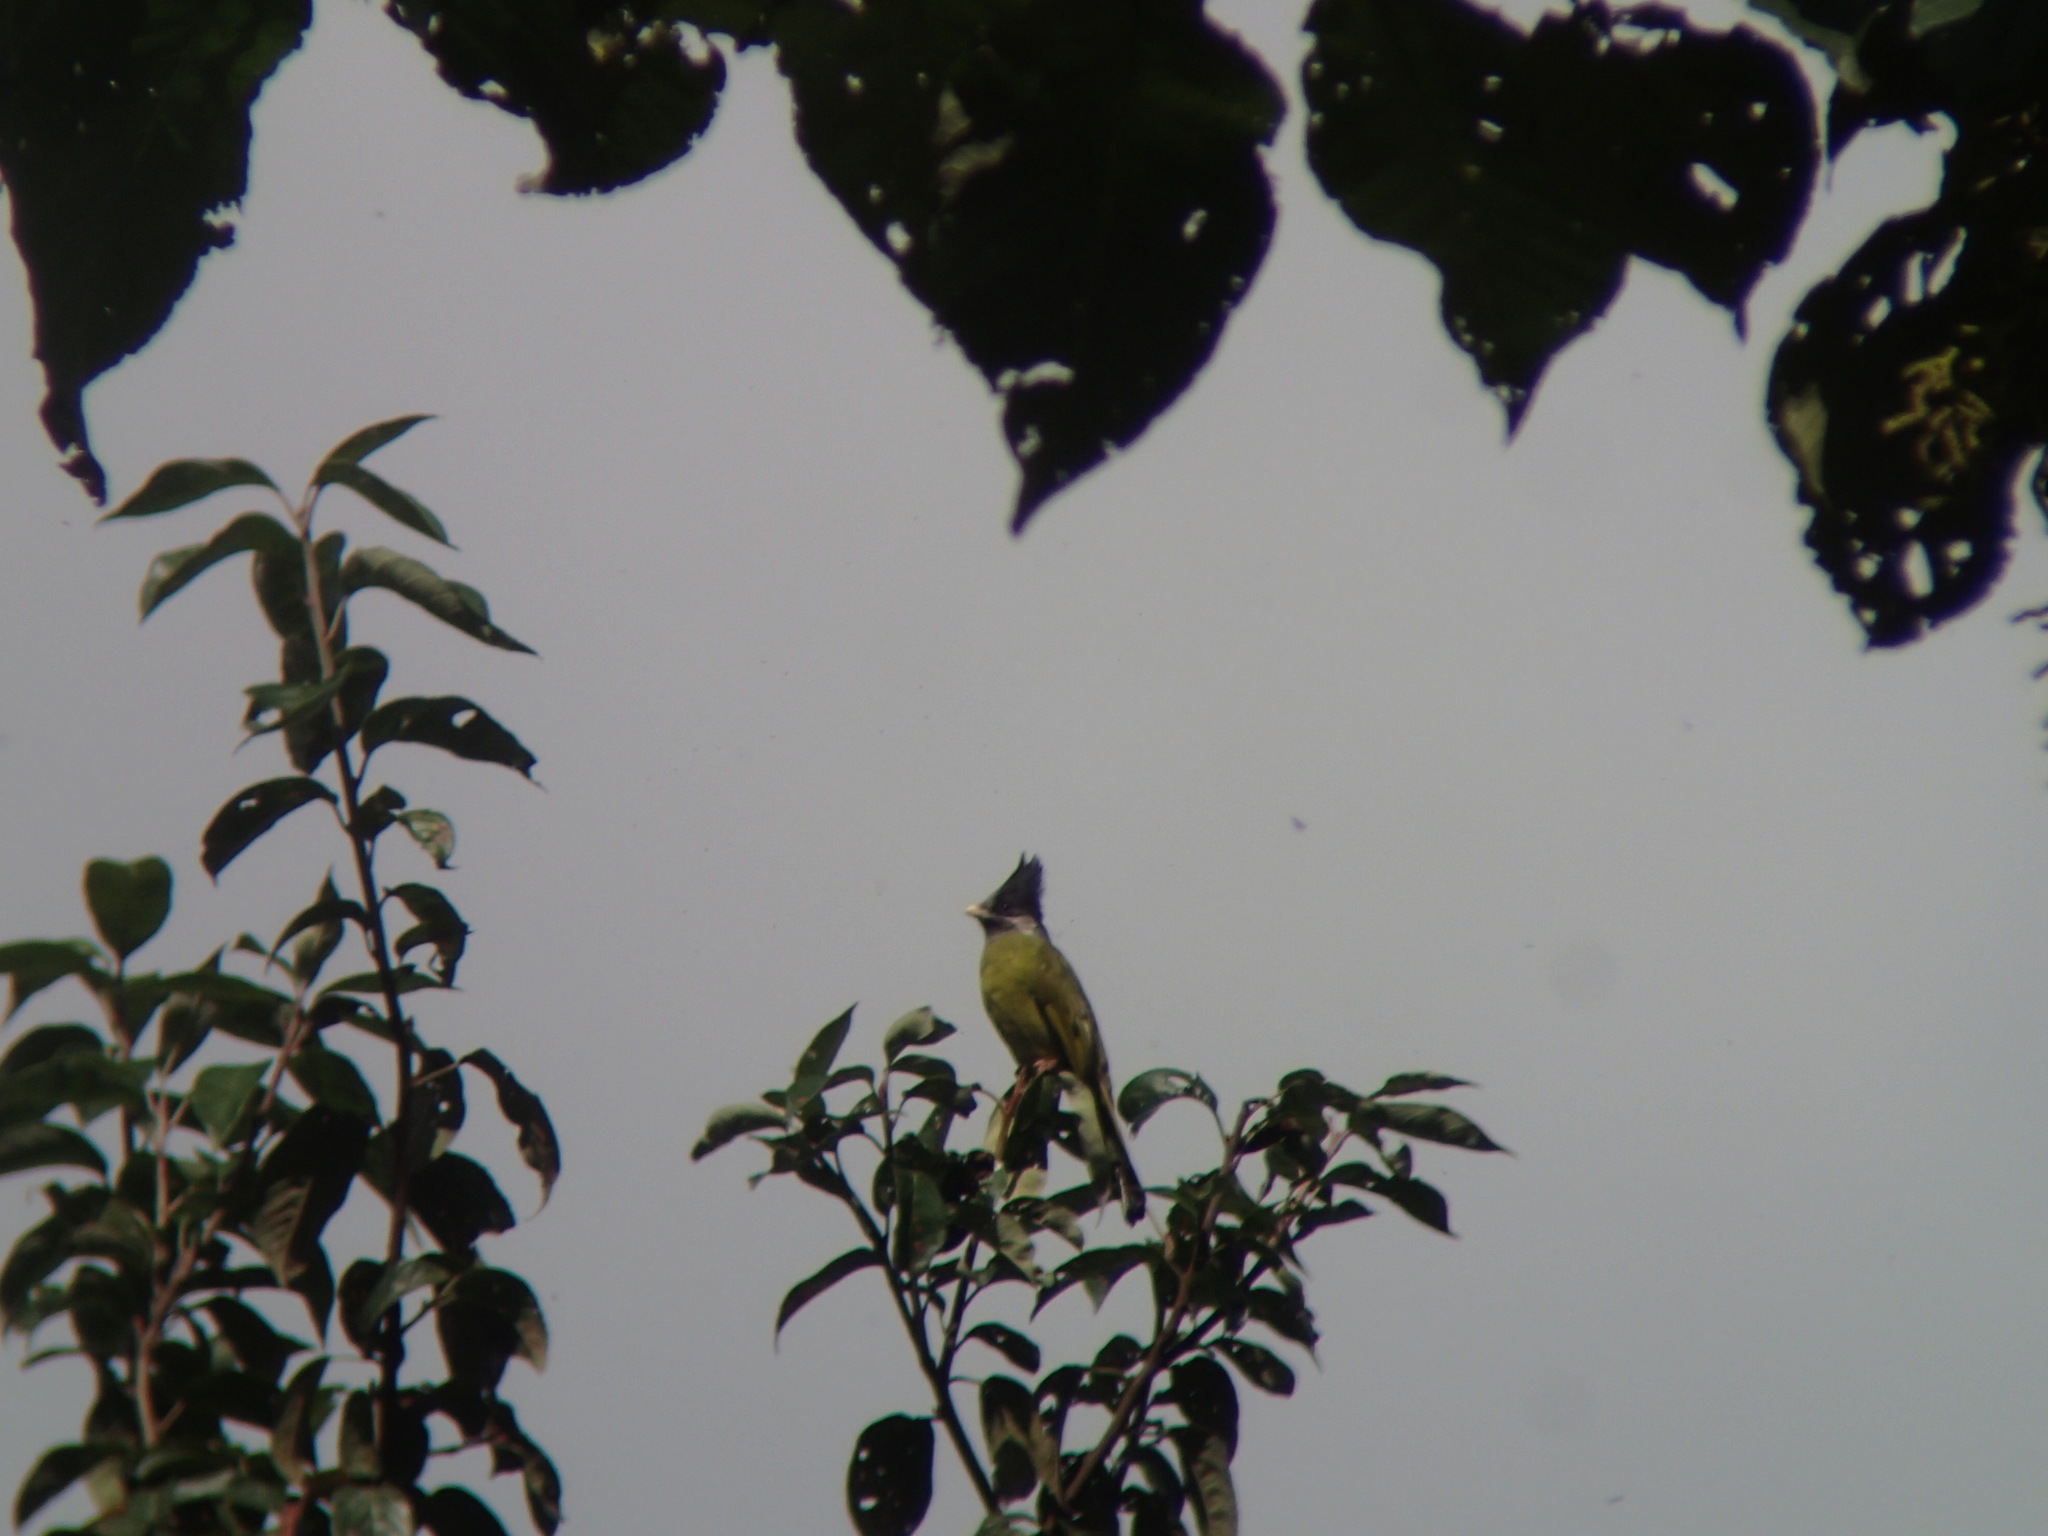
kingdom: Animalia
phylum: Chordata
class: Aves
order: Passeriformes
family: Pycnonotidae
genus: Spizixos
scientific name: Spizixos canifrons
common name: Crested finchbill
